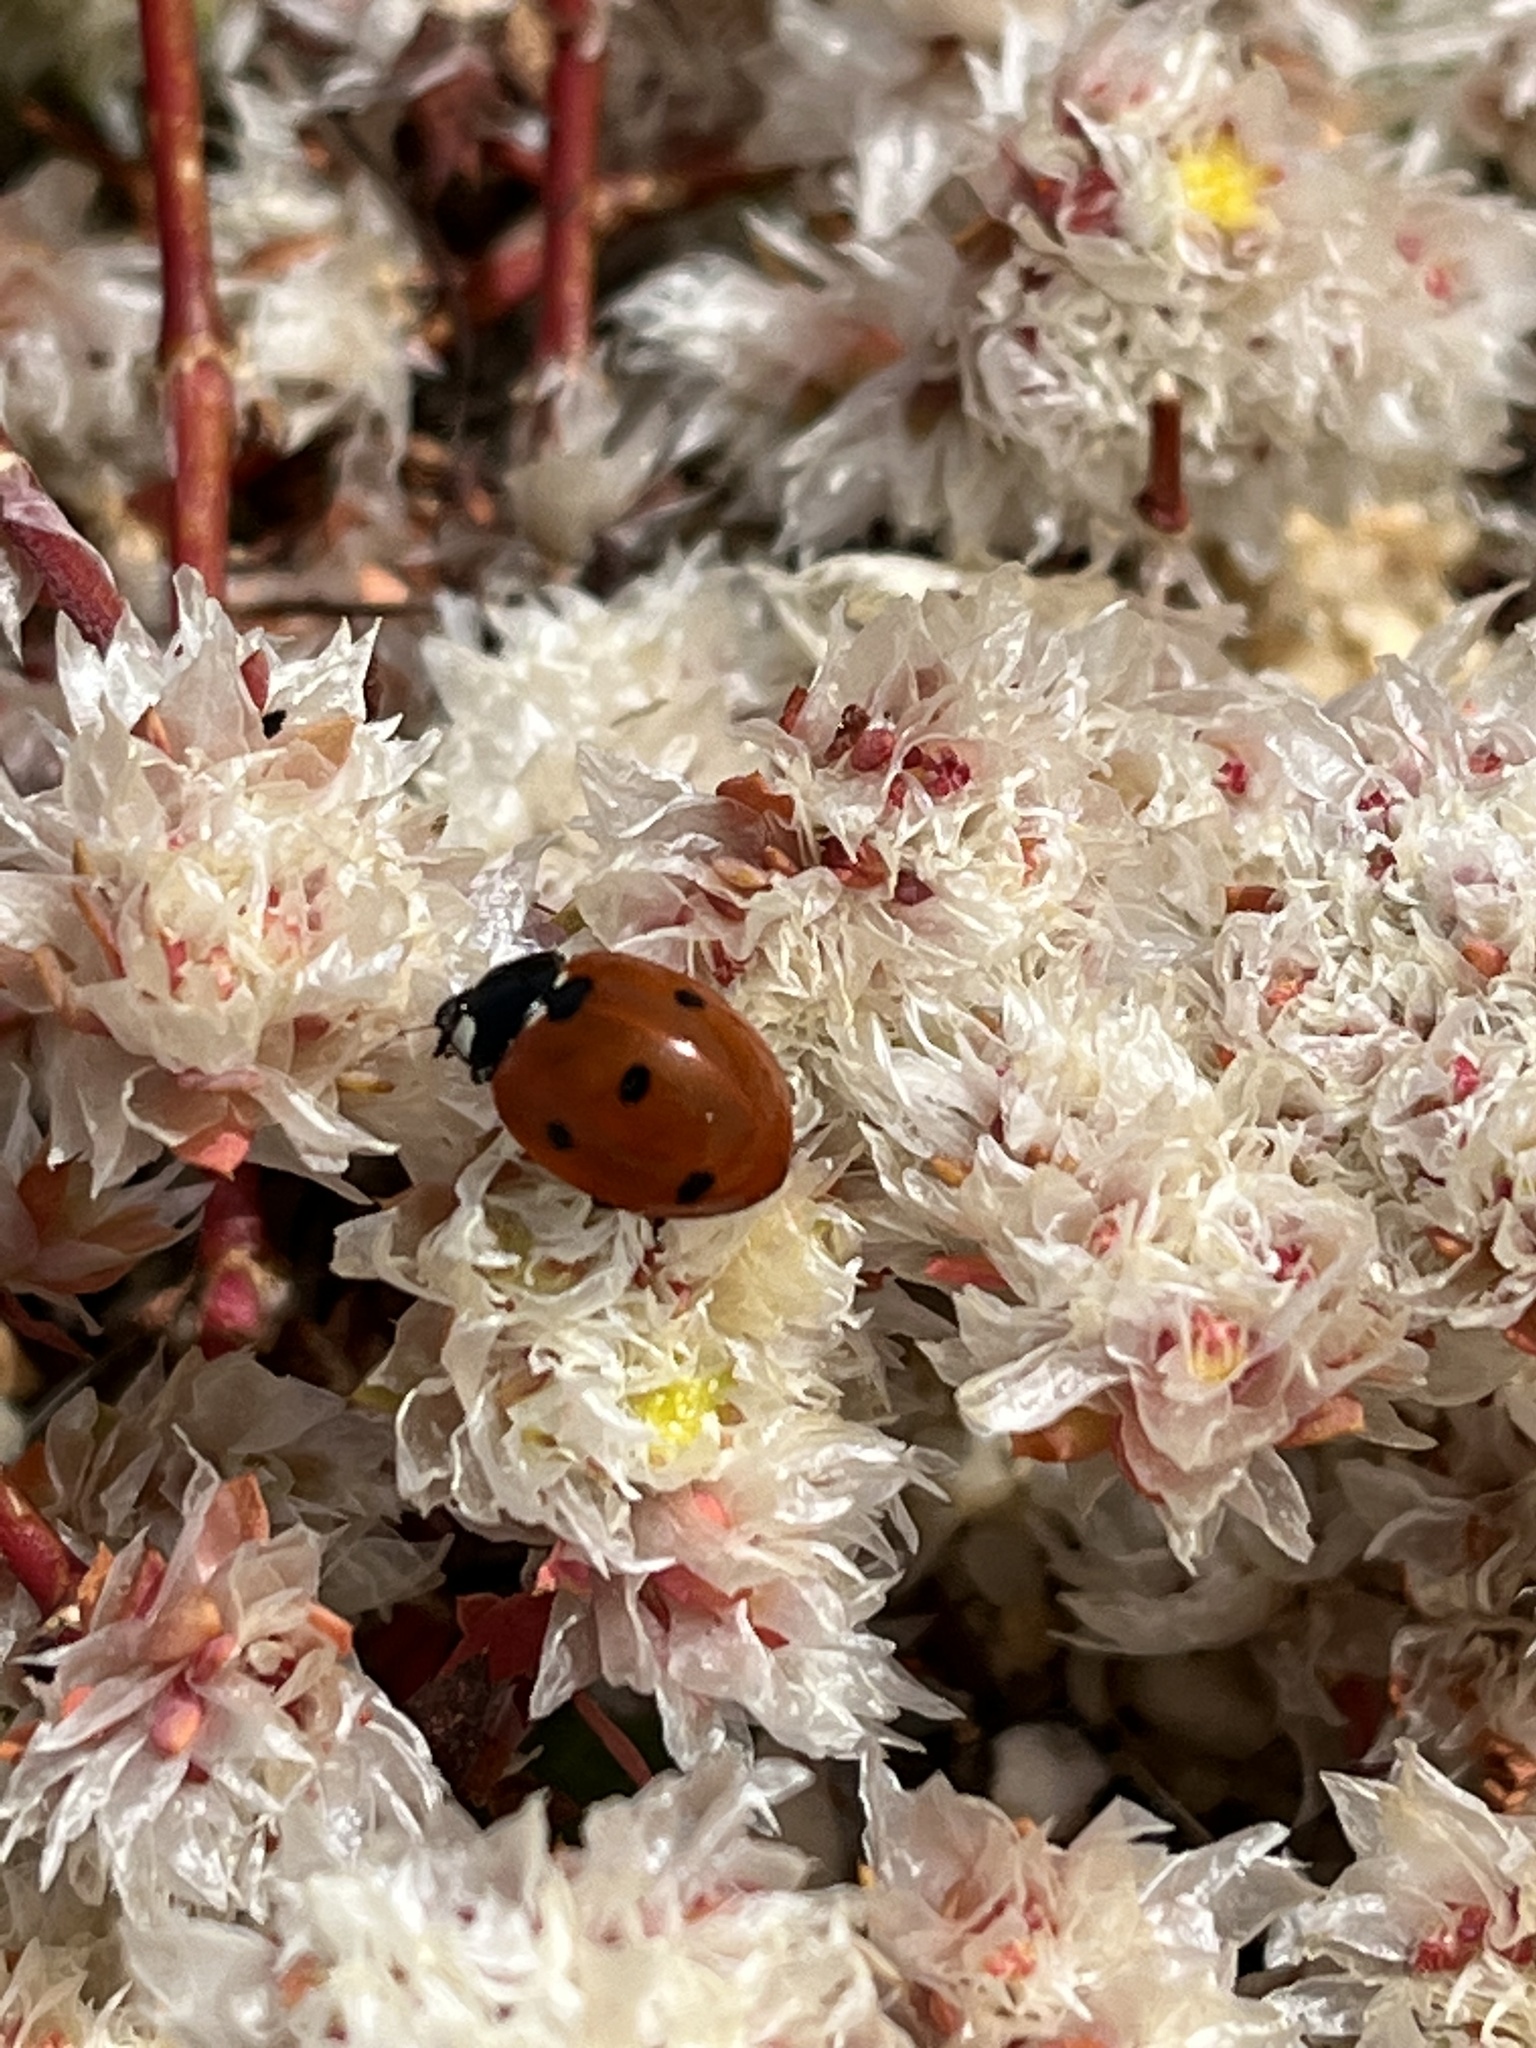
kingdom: Animalia
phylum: Arthropoda
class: Insecta
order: Coleoptera
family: Coccinellidae
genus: Coccinella
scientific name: Coccinella septempunctata
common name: Sevenspotted lady beetle
